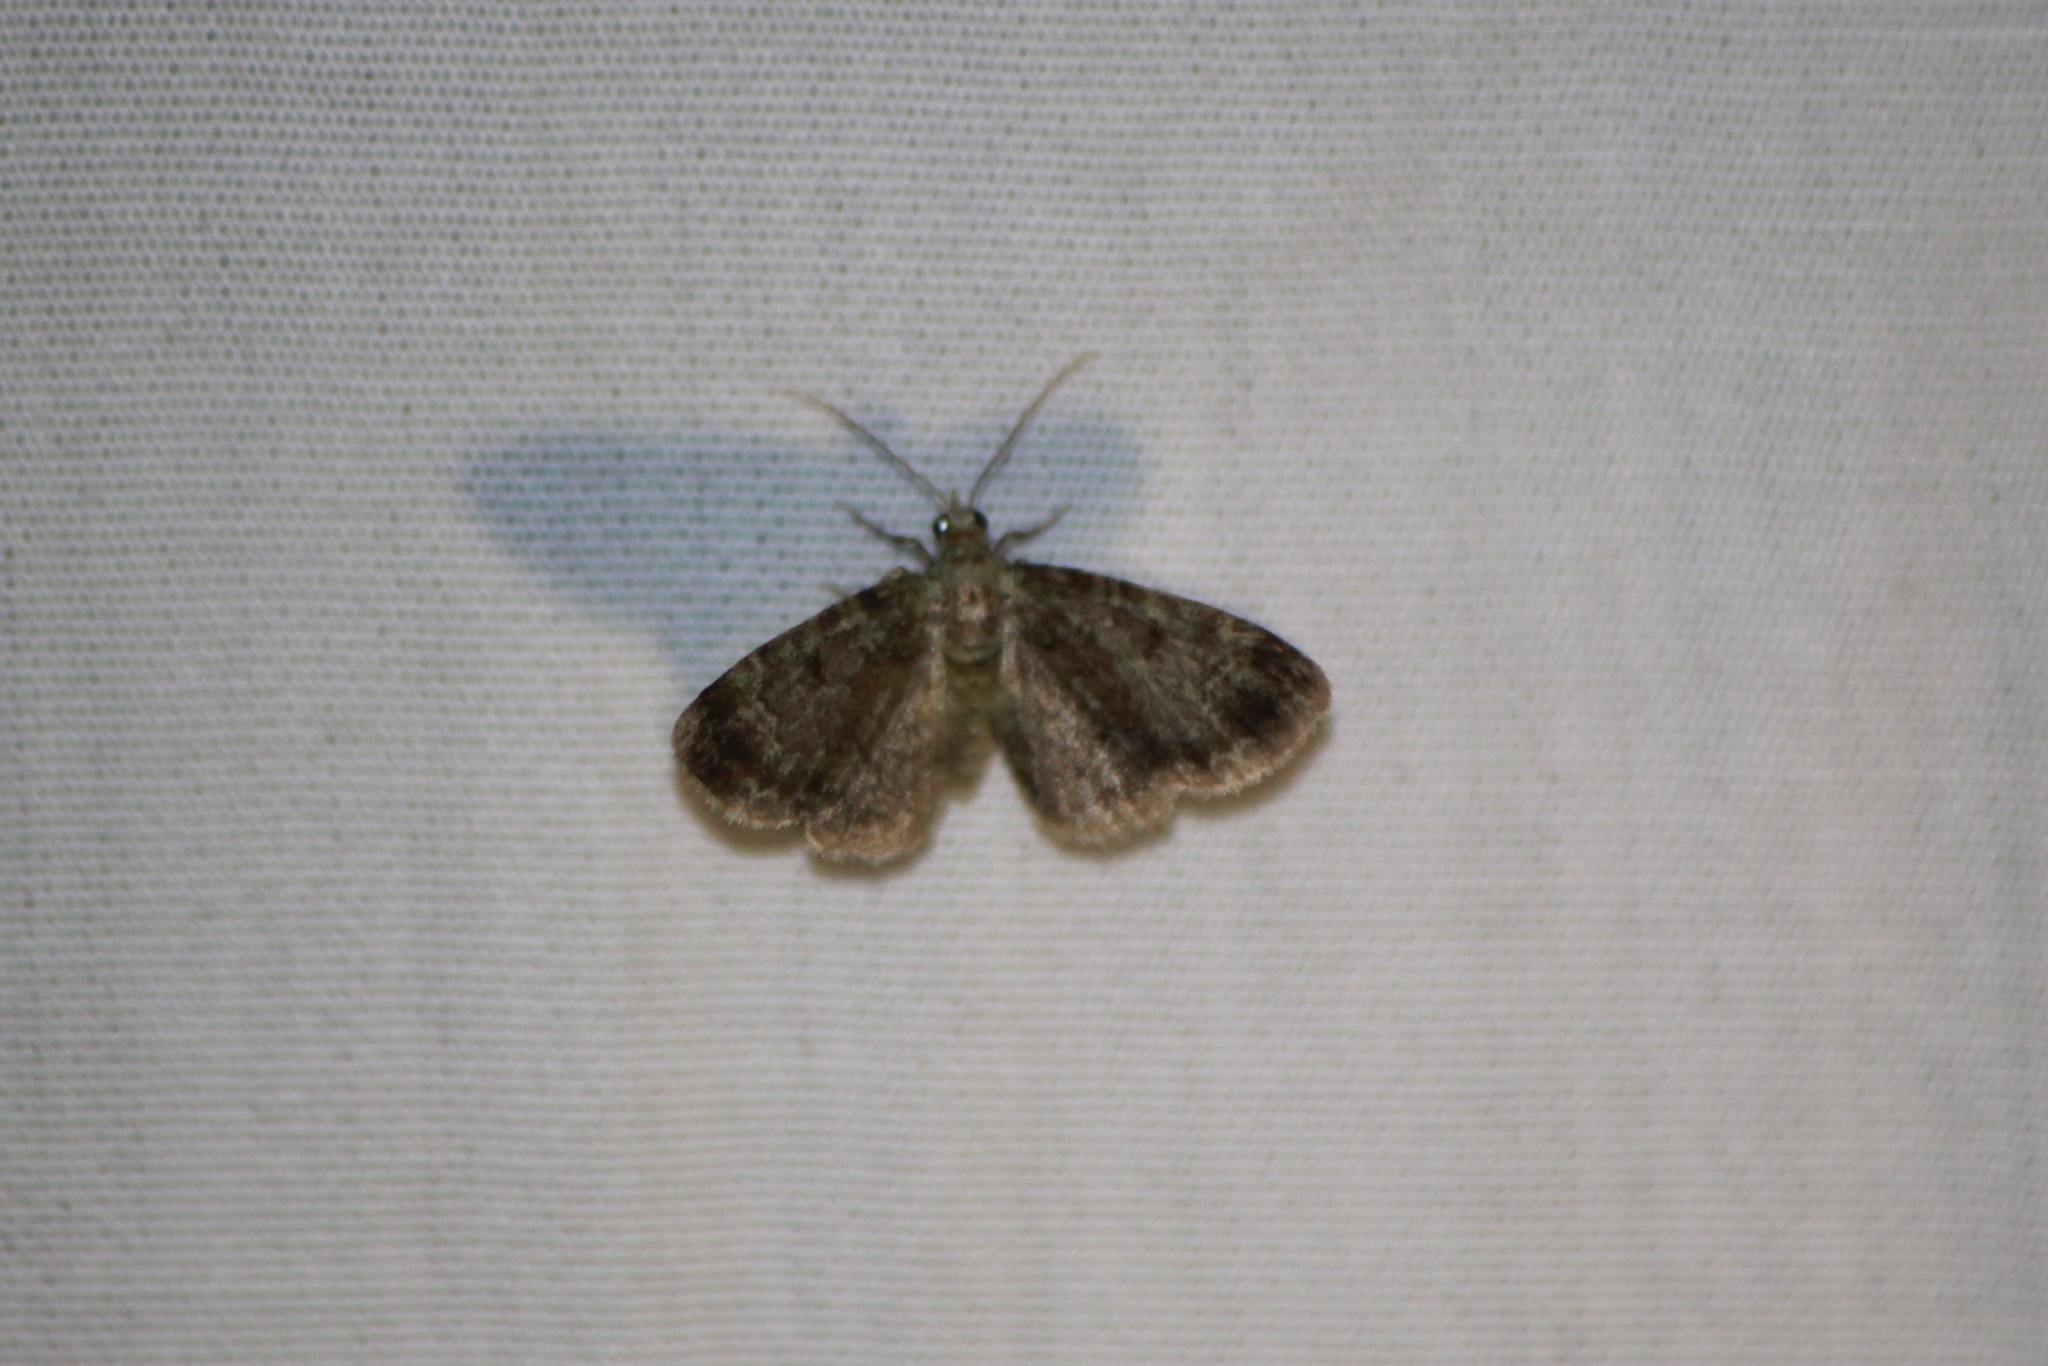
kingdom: Animalia
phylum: Arthropoda
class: Insecta
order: Lepidoptera
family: Geometridae
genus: Pasiphila
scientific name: Pasiphila rectangulata
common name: Green pug
